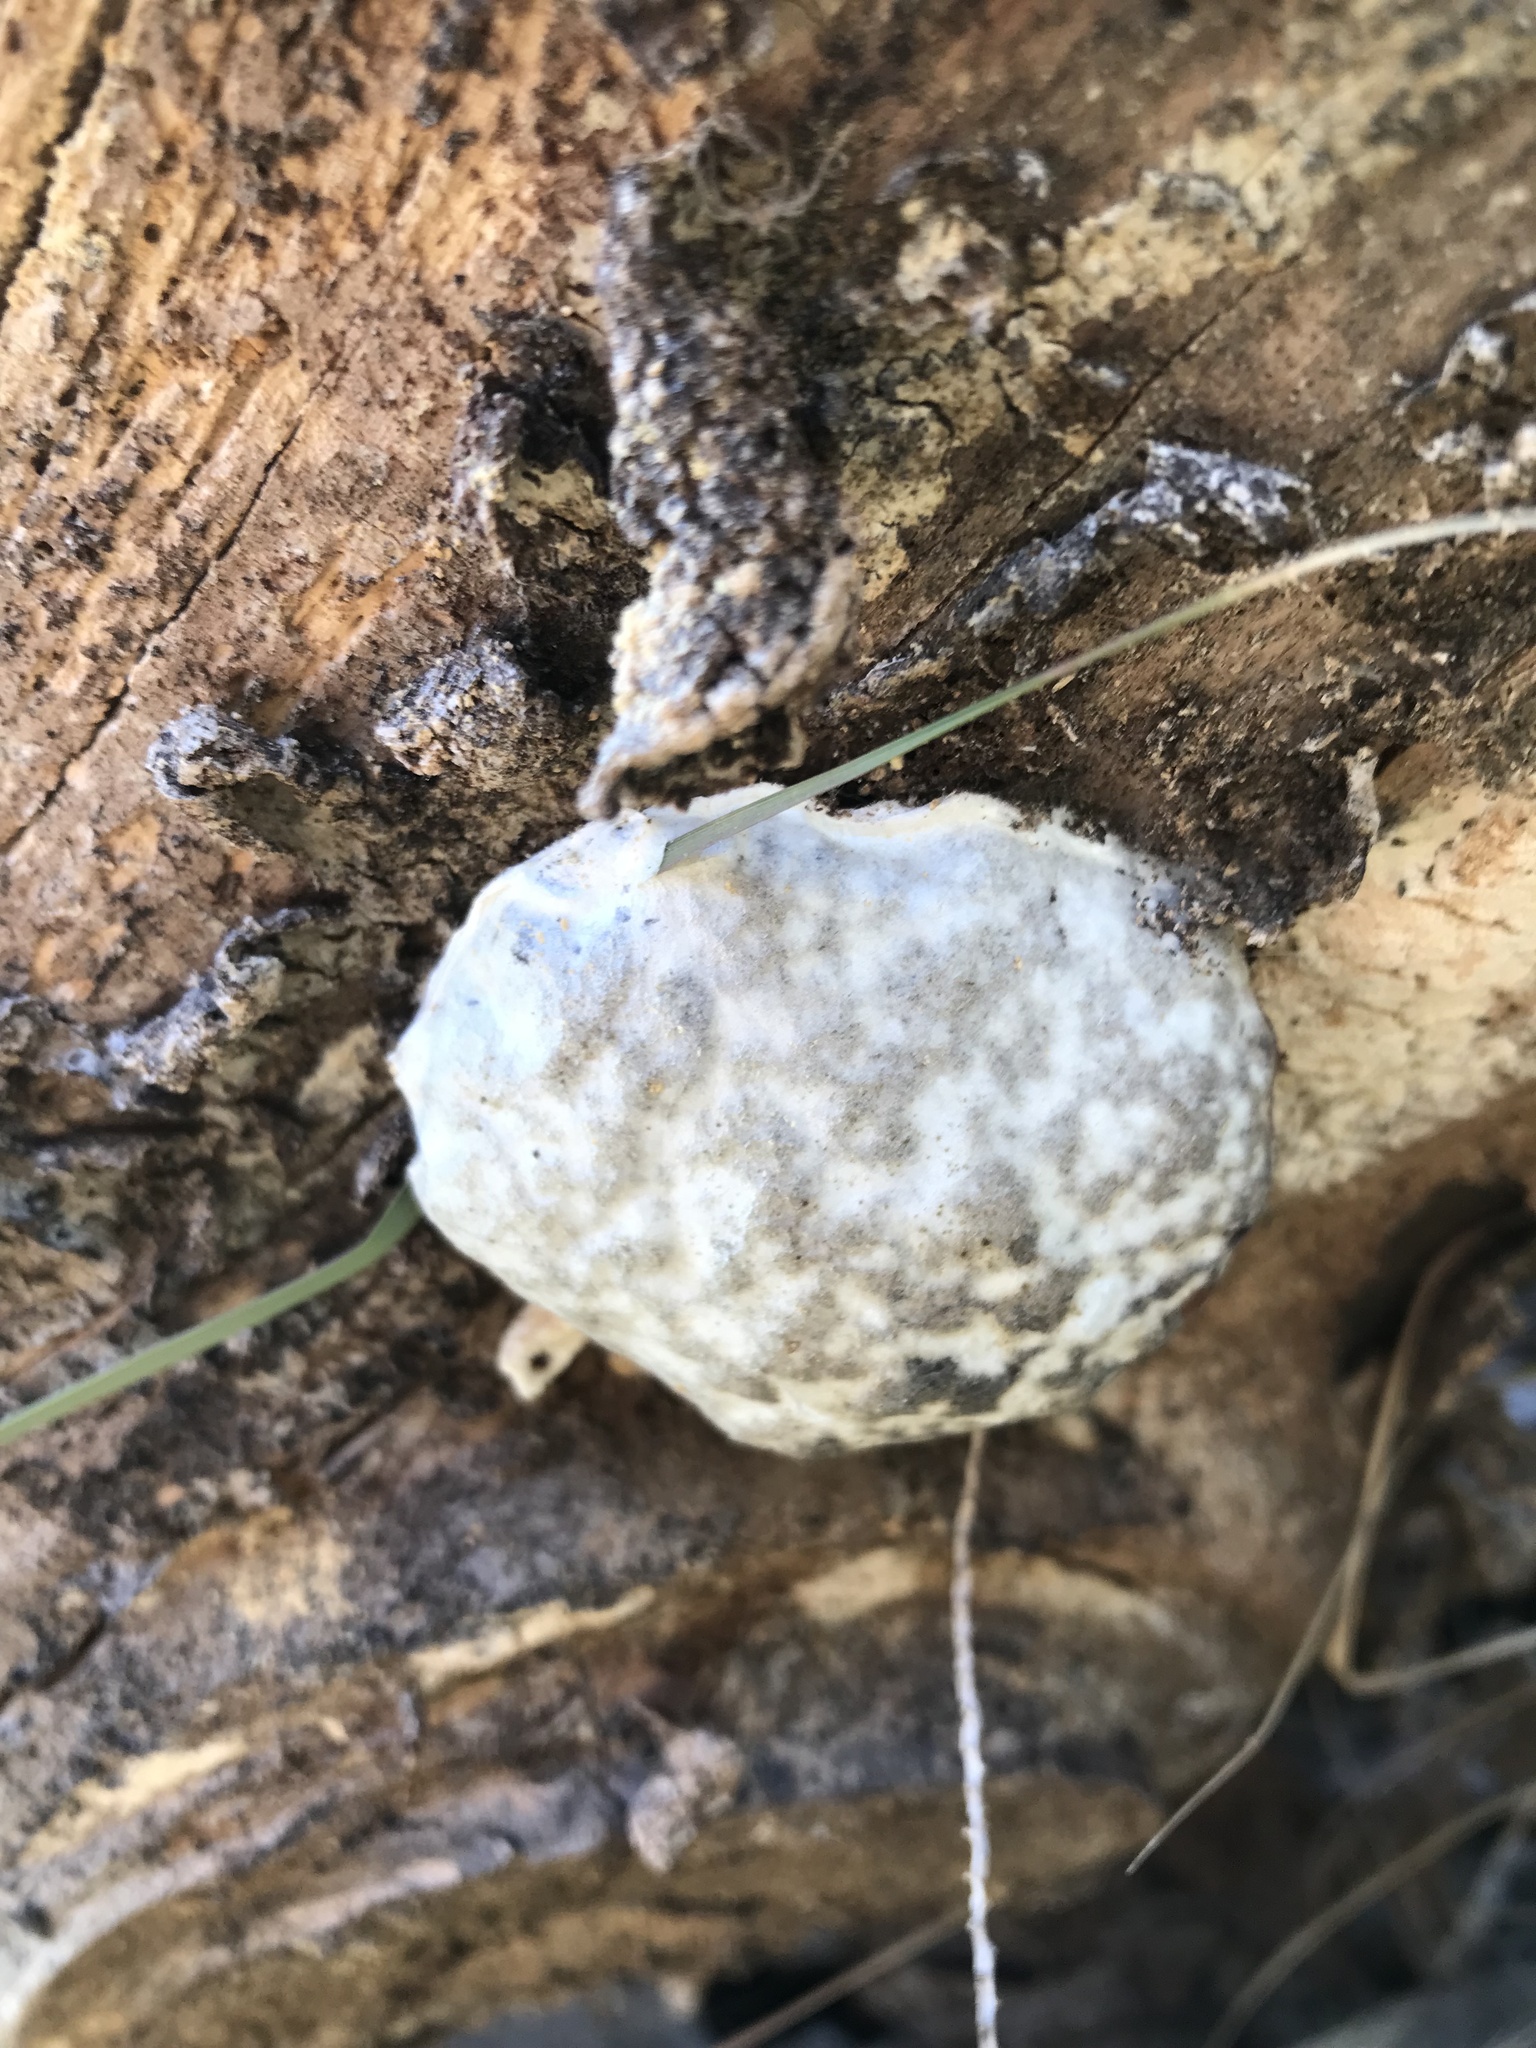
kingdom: Protozoa
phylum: Mycetozoa
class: Myxomycetes
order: Cribrariales
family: Tubiferaceae
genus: Reticularia
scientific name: Reticularia lycoperdon
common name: False puffball
